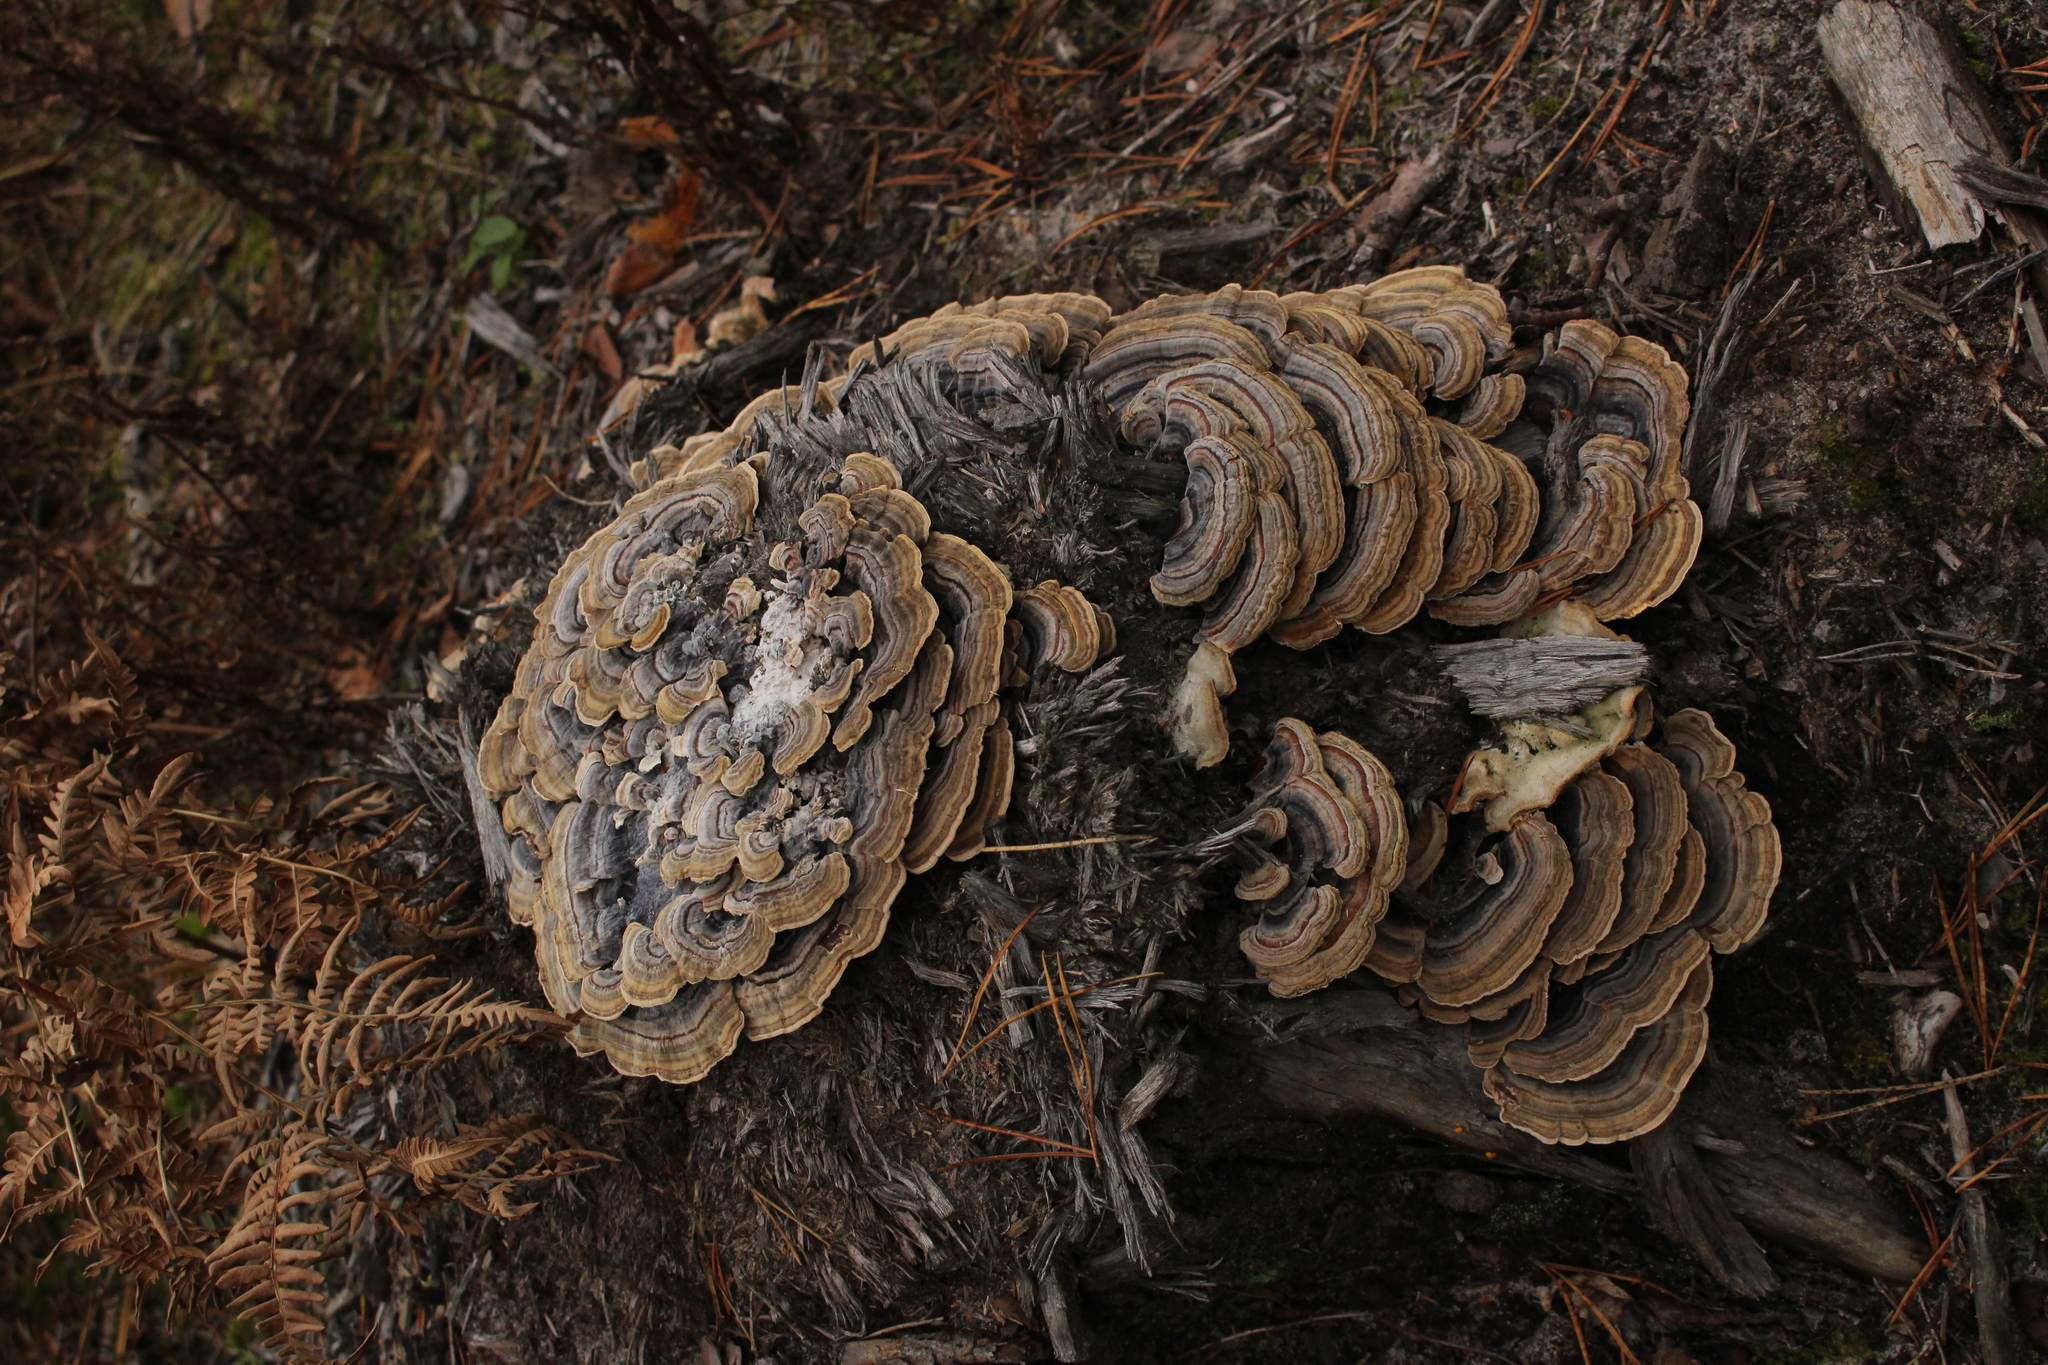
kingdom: Fungi
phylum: Basidiomycota
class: Agaricomycetes
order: Polyporales
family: Polyporaceae
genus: Trametes
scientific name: Trametes versicolor
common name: Turkeytail
